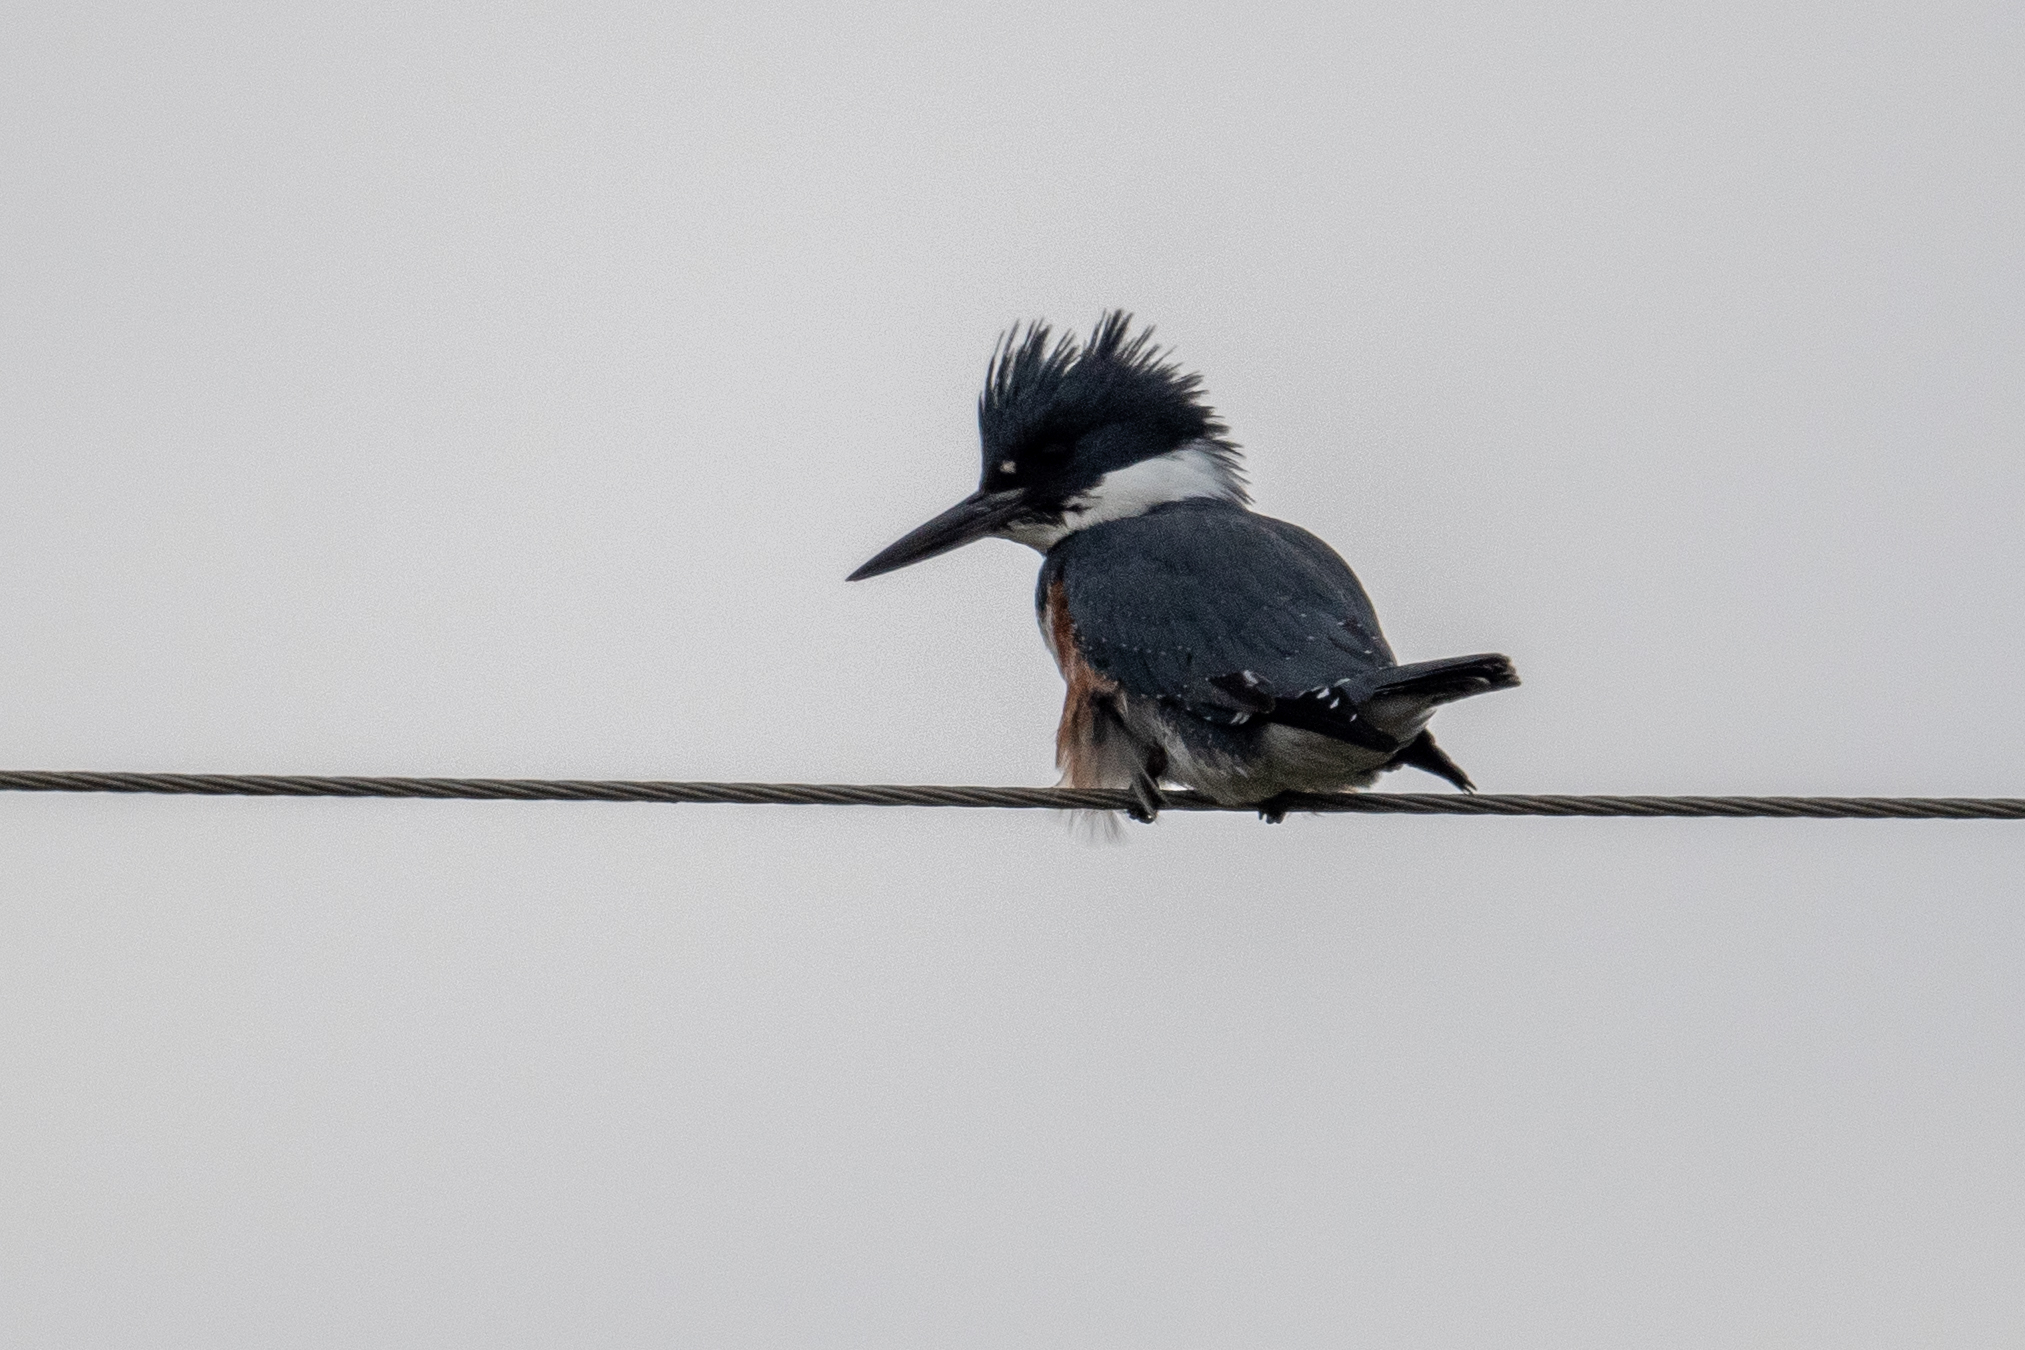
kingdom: Animalia
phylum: Chordata
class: Aves
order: Coraciiformes
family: Alcedinidae
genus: Megaceryle
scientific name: Megaceryle alcyon
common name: Belted kingfisher
